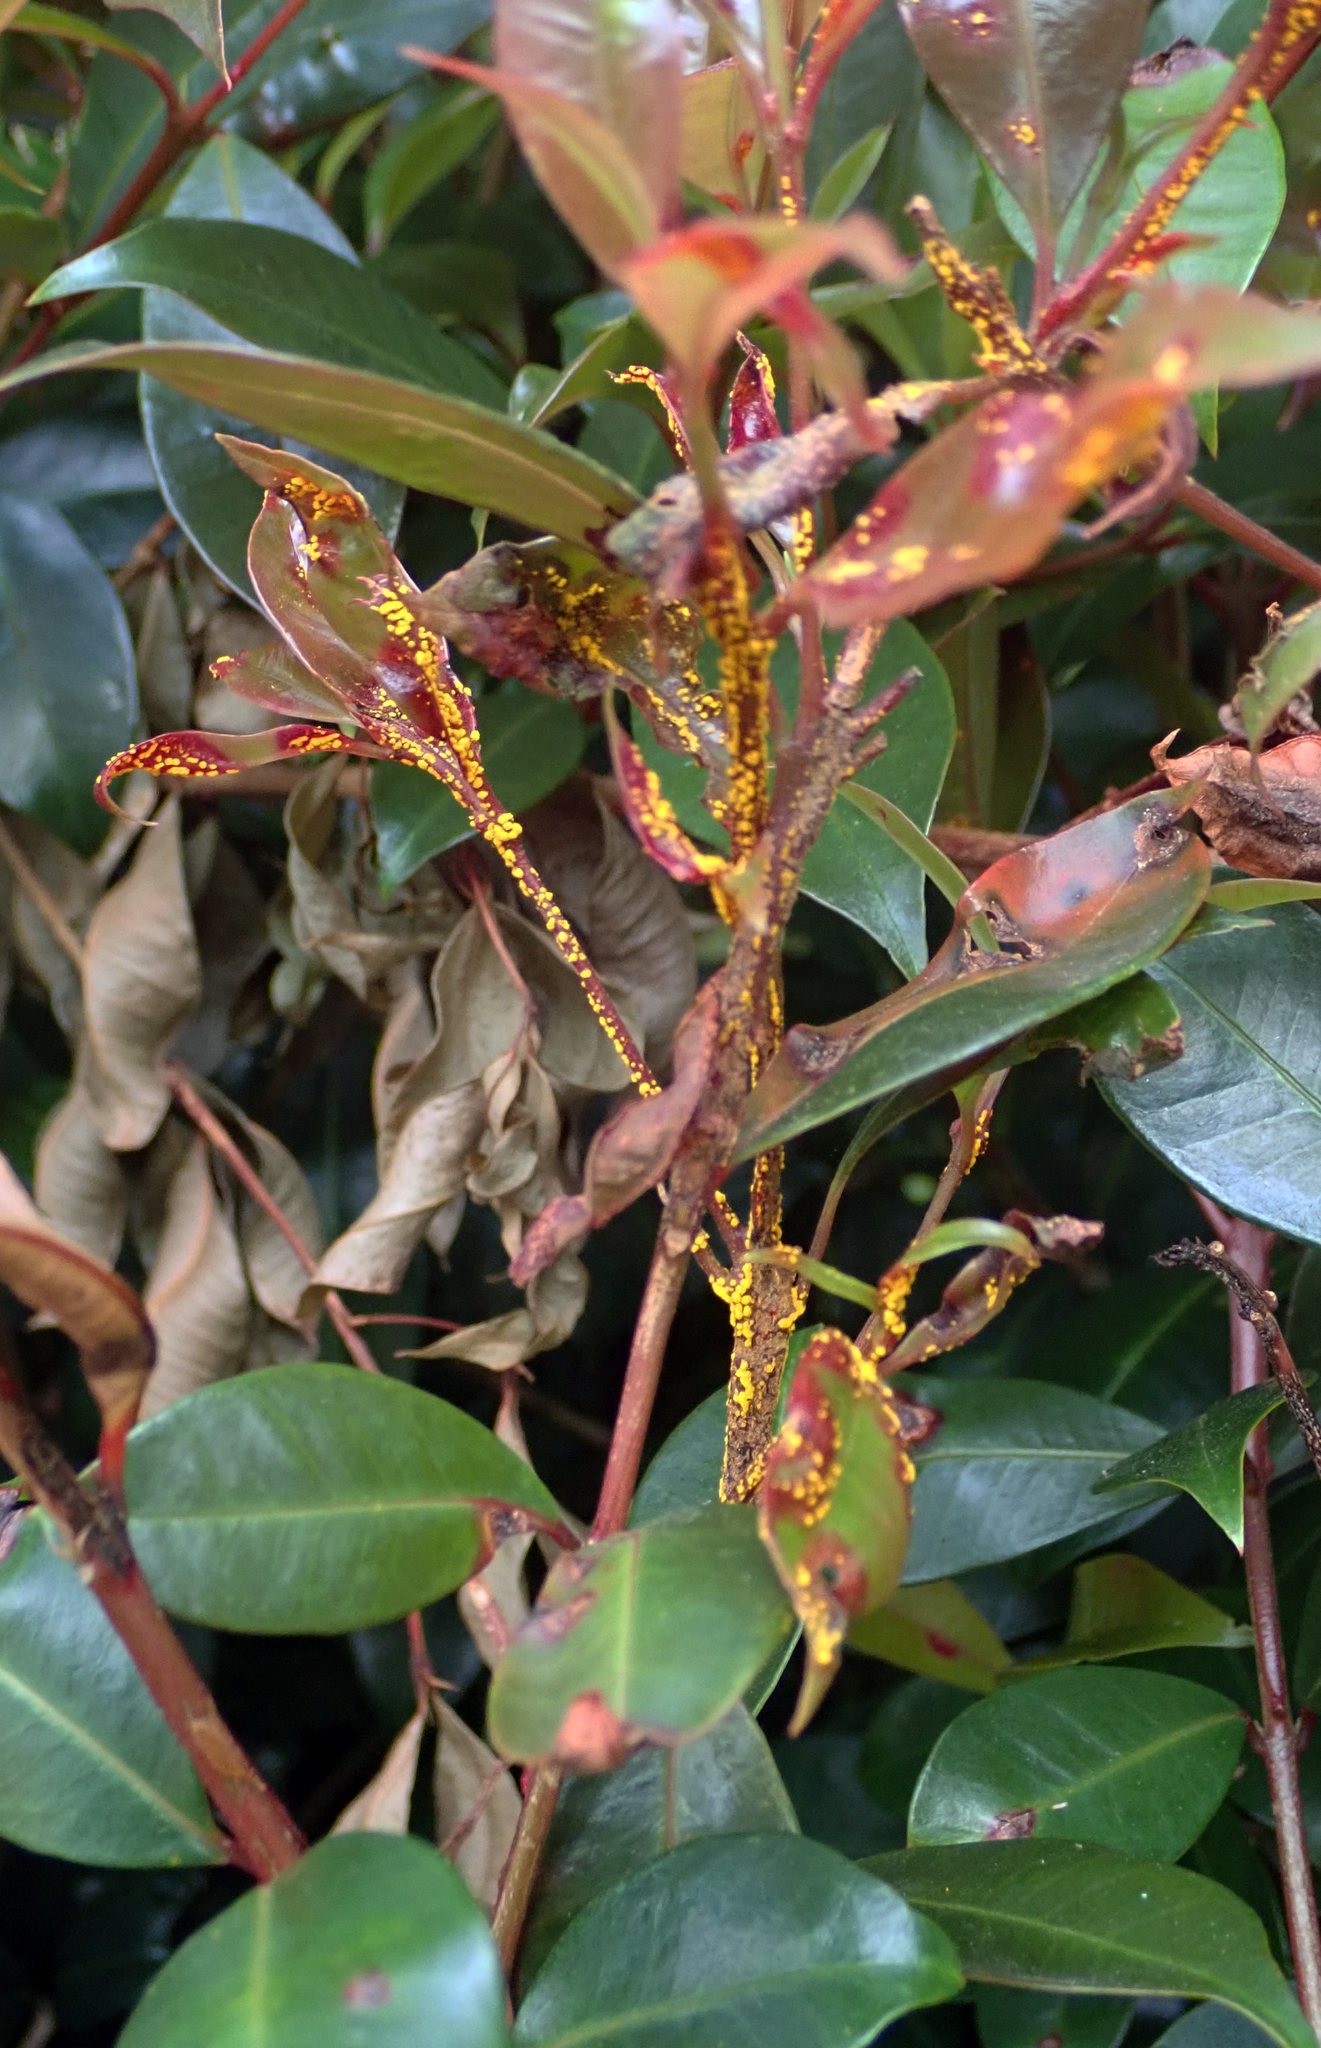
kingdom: Fungi
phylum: Basidiomycota
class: Pucciniomycetes
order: Pucciniales
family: Sphaerophragmiaceae
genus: Austropuccinia
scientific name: Austropuccinia psidii
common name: Myrtle rust
